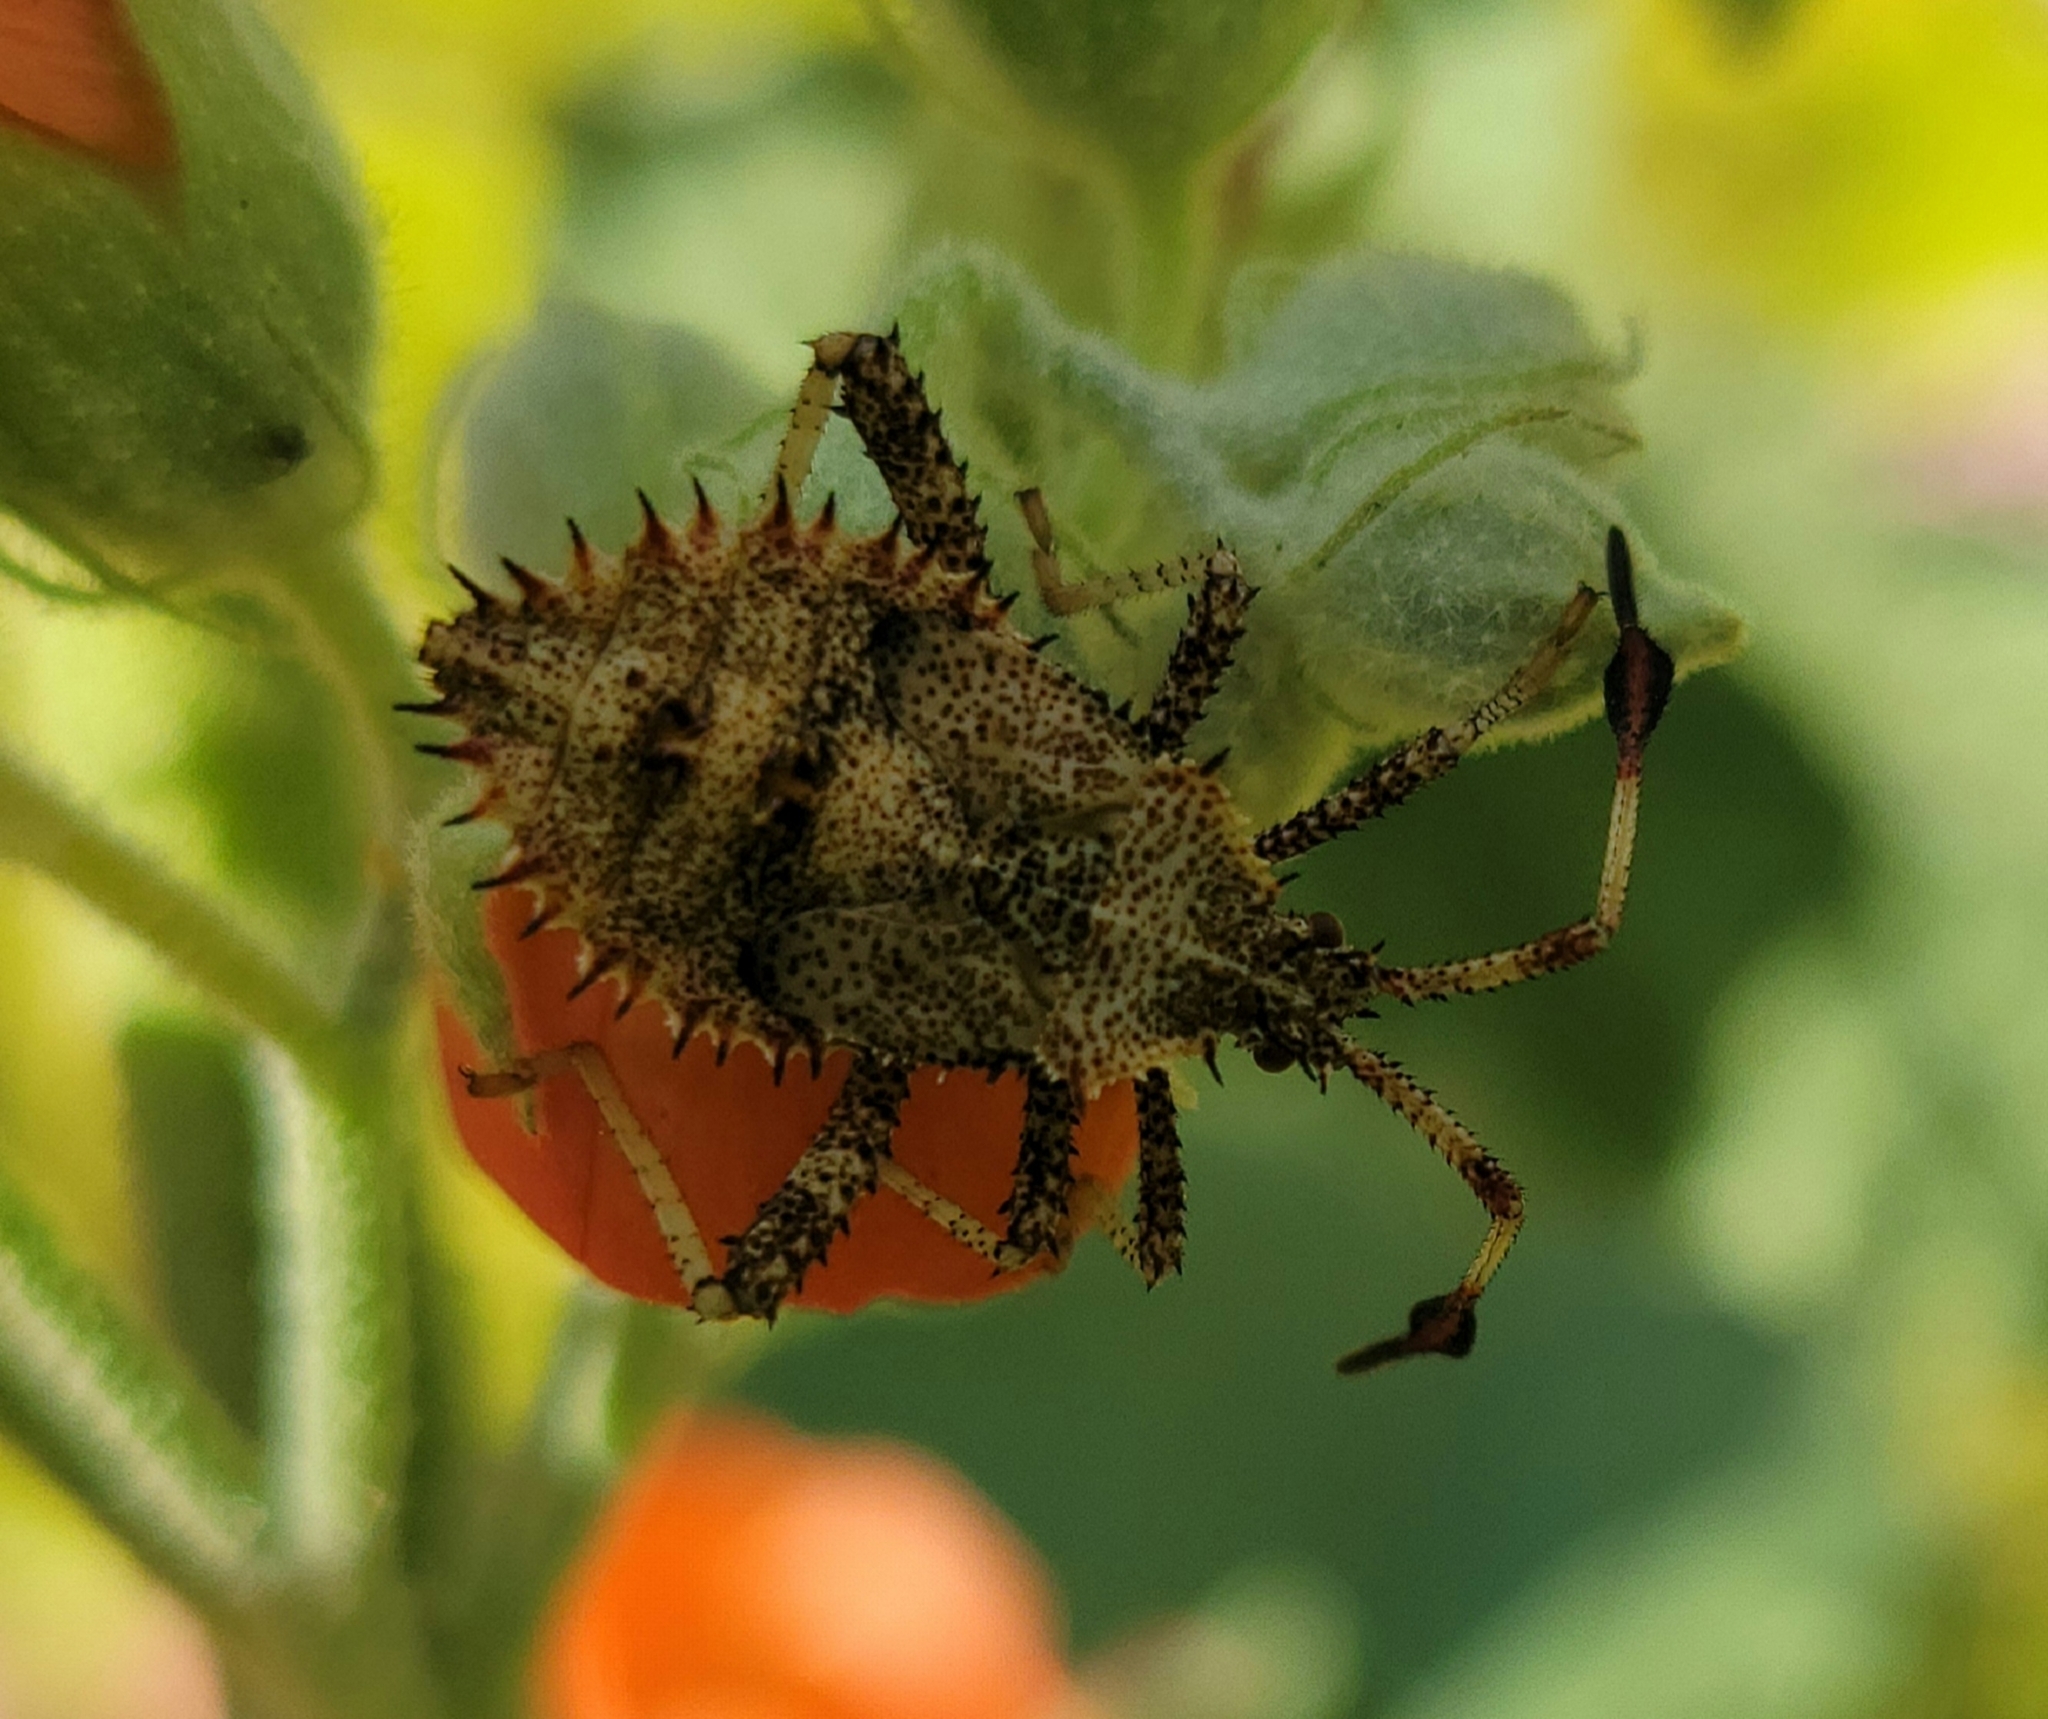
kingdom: Animalia
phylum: Arthropoda
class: Insecta
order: Hemiptera
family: Coreidae
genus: Euthochtha
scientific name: Euthochtha galeator
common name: Helmeted squash bug
